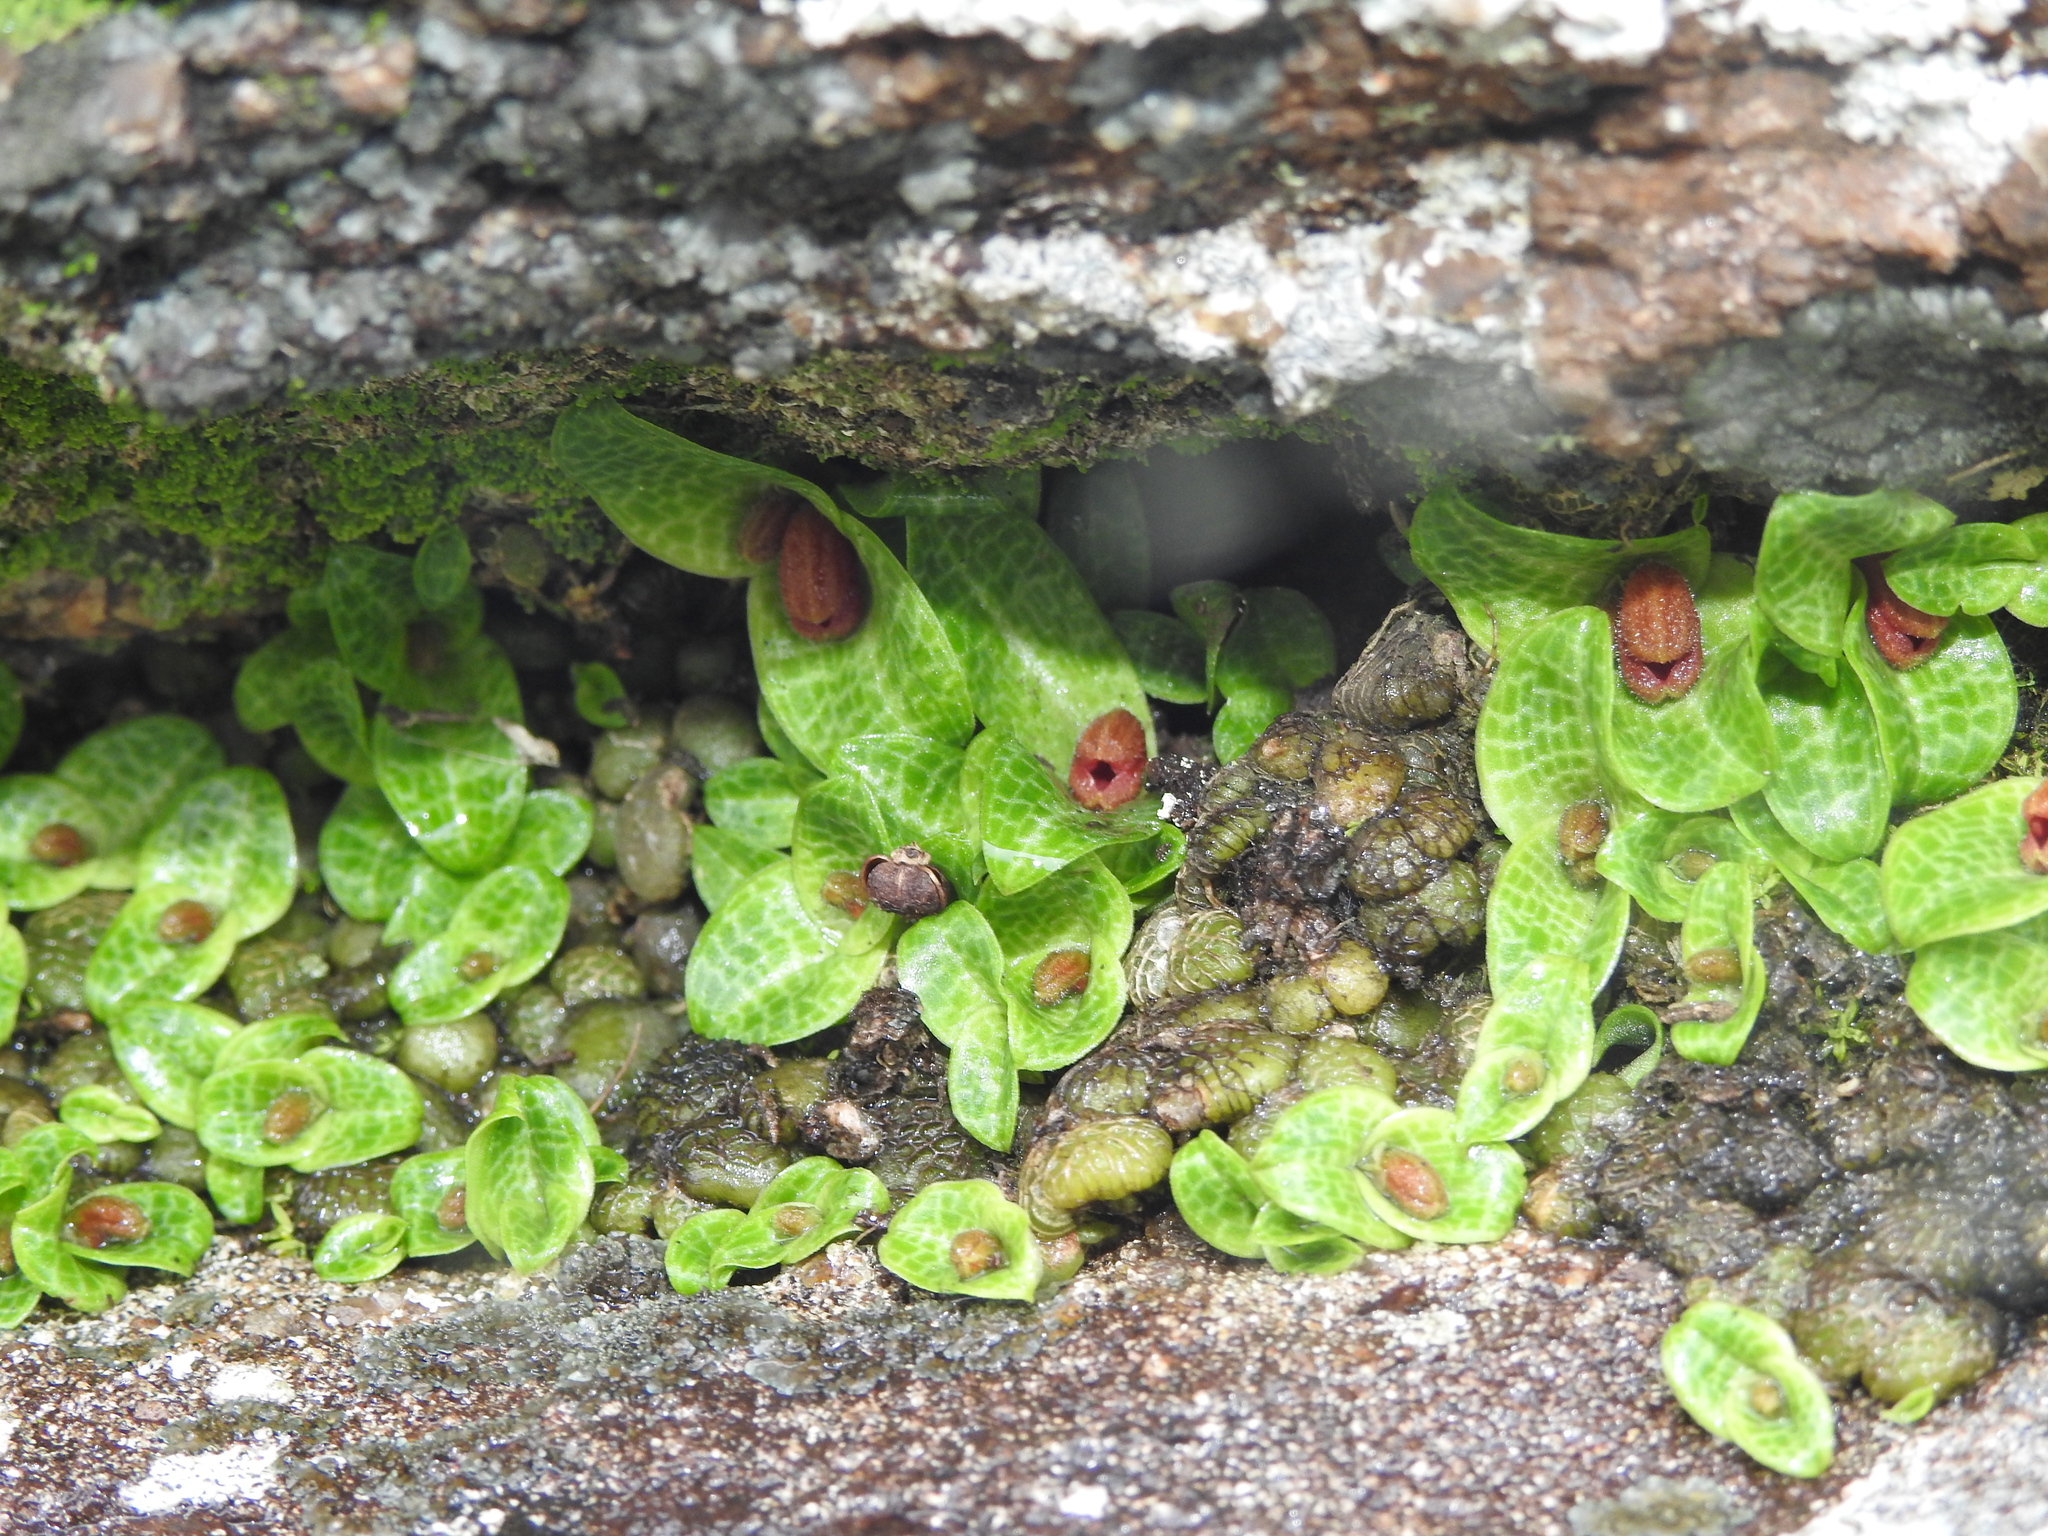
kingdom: Plantae
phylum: Tracheophyta
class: Liliopsida
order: Asparagales
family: Orchidaceae
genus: Porpax
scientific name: Porpax jerdoniana
